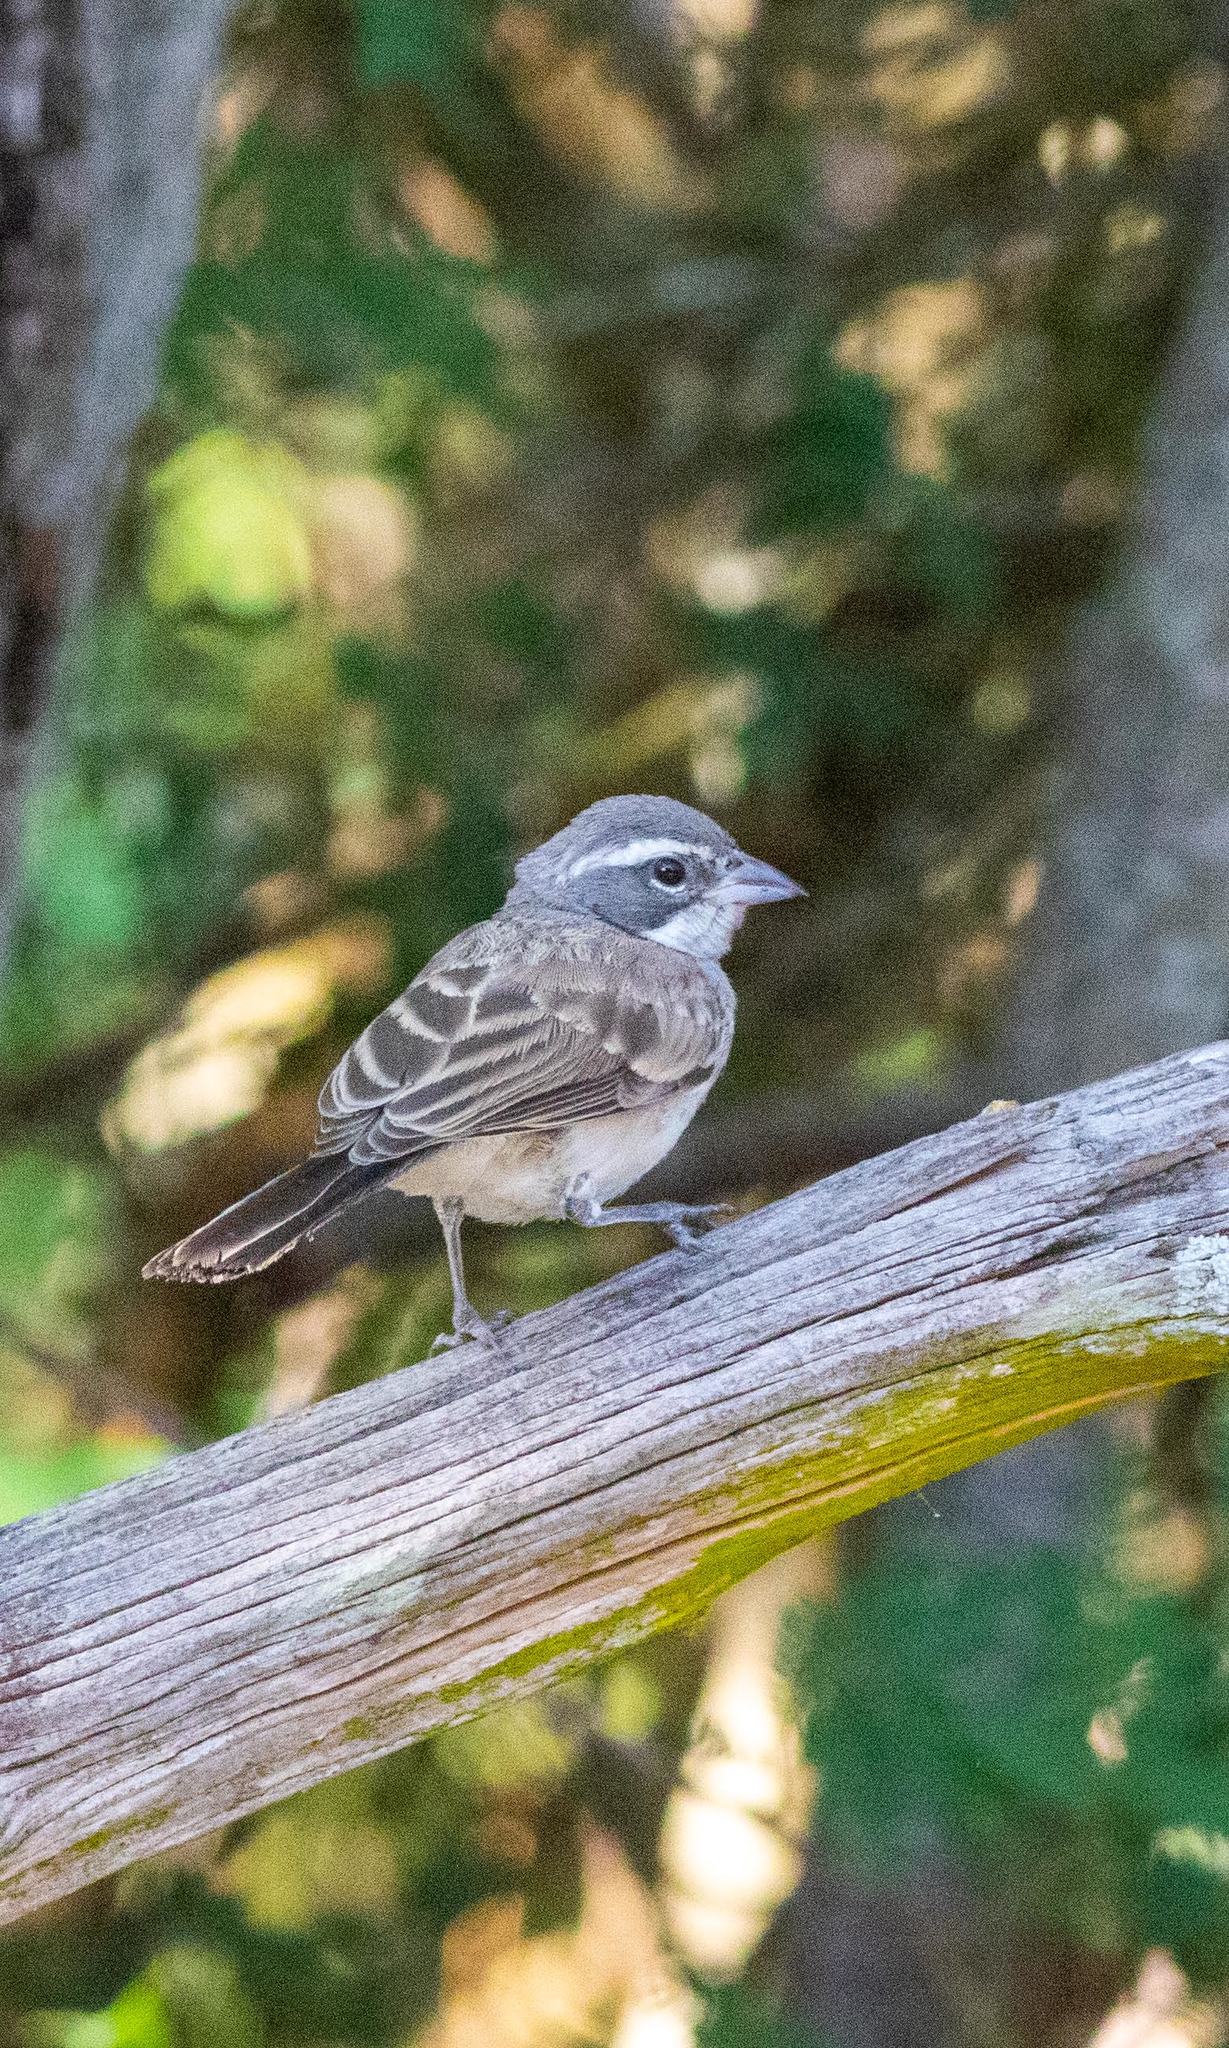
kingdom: Animalia
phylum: Chordata
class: Aves
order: Passeriformes
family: Passerellidae
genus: Amphispiza
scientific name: Amphispiza bilineata
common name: Black-throated sparrow
